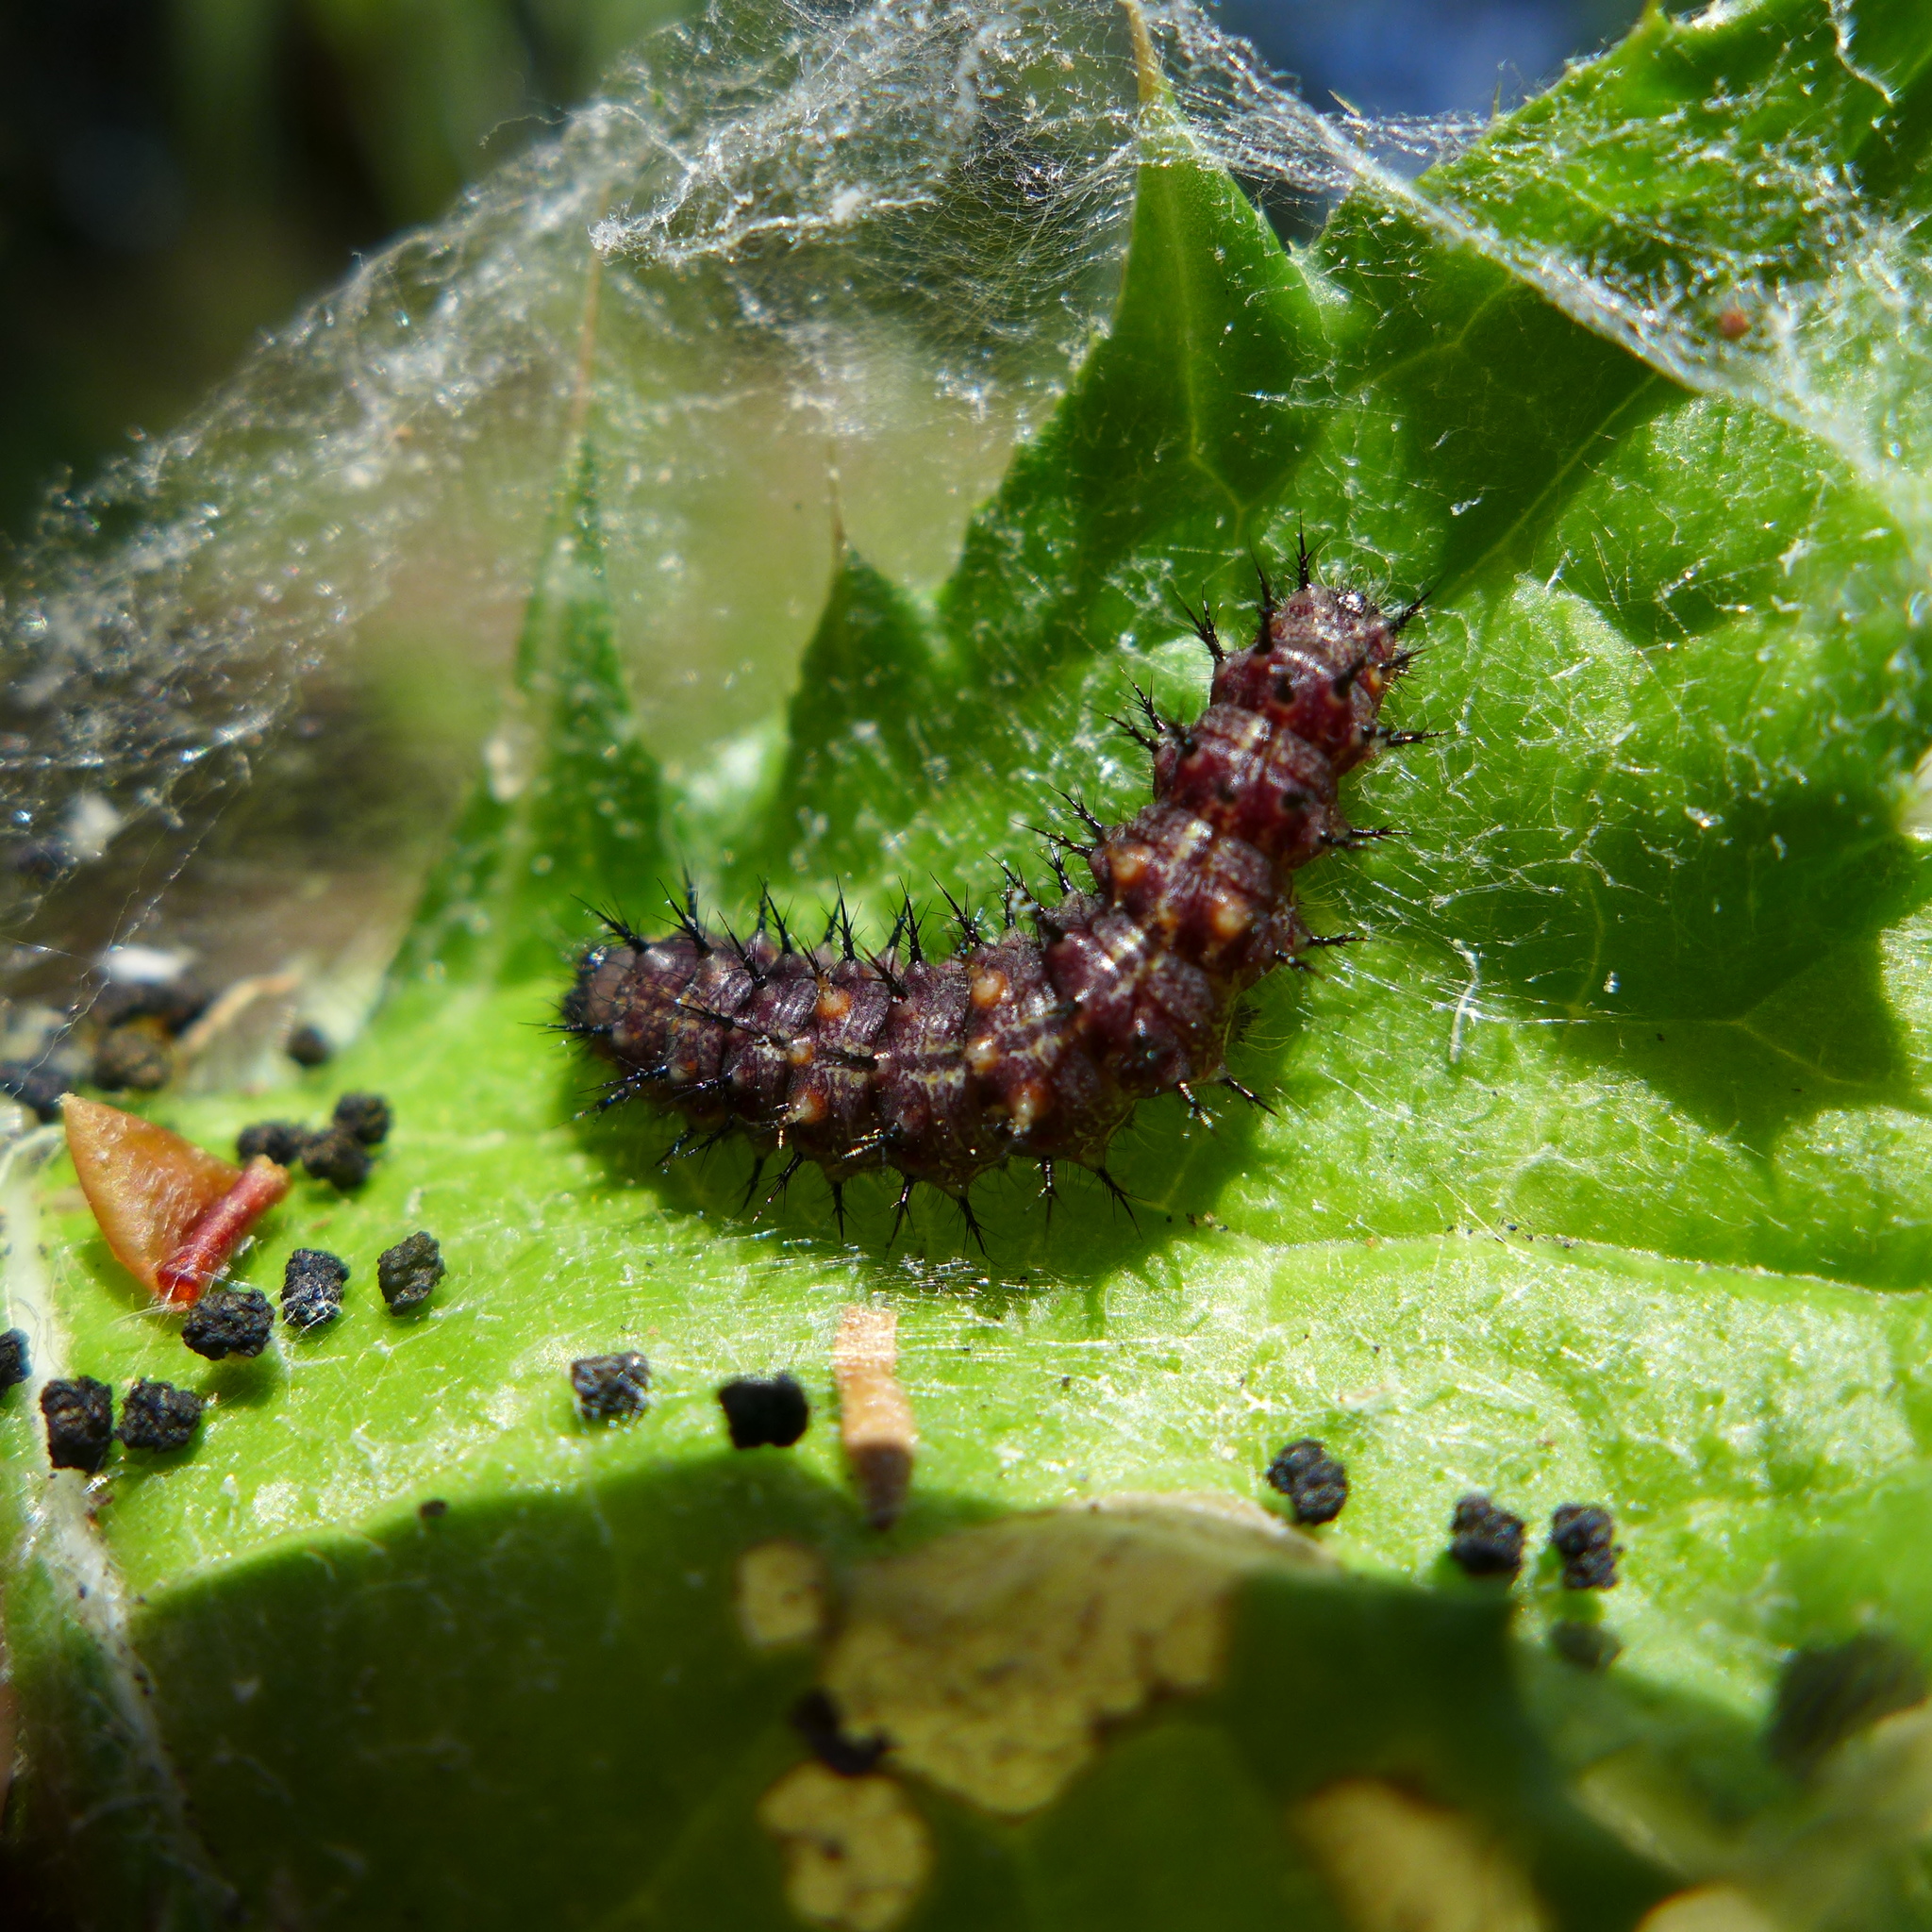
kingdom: Animalia
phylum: Arthropoda
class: Insecta
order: Lepidoptera
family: Nymphalidae
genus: Vanessa
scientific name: Vanessa cardui
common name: Painted lady
